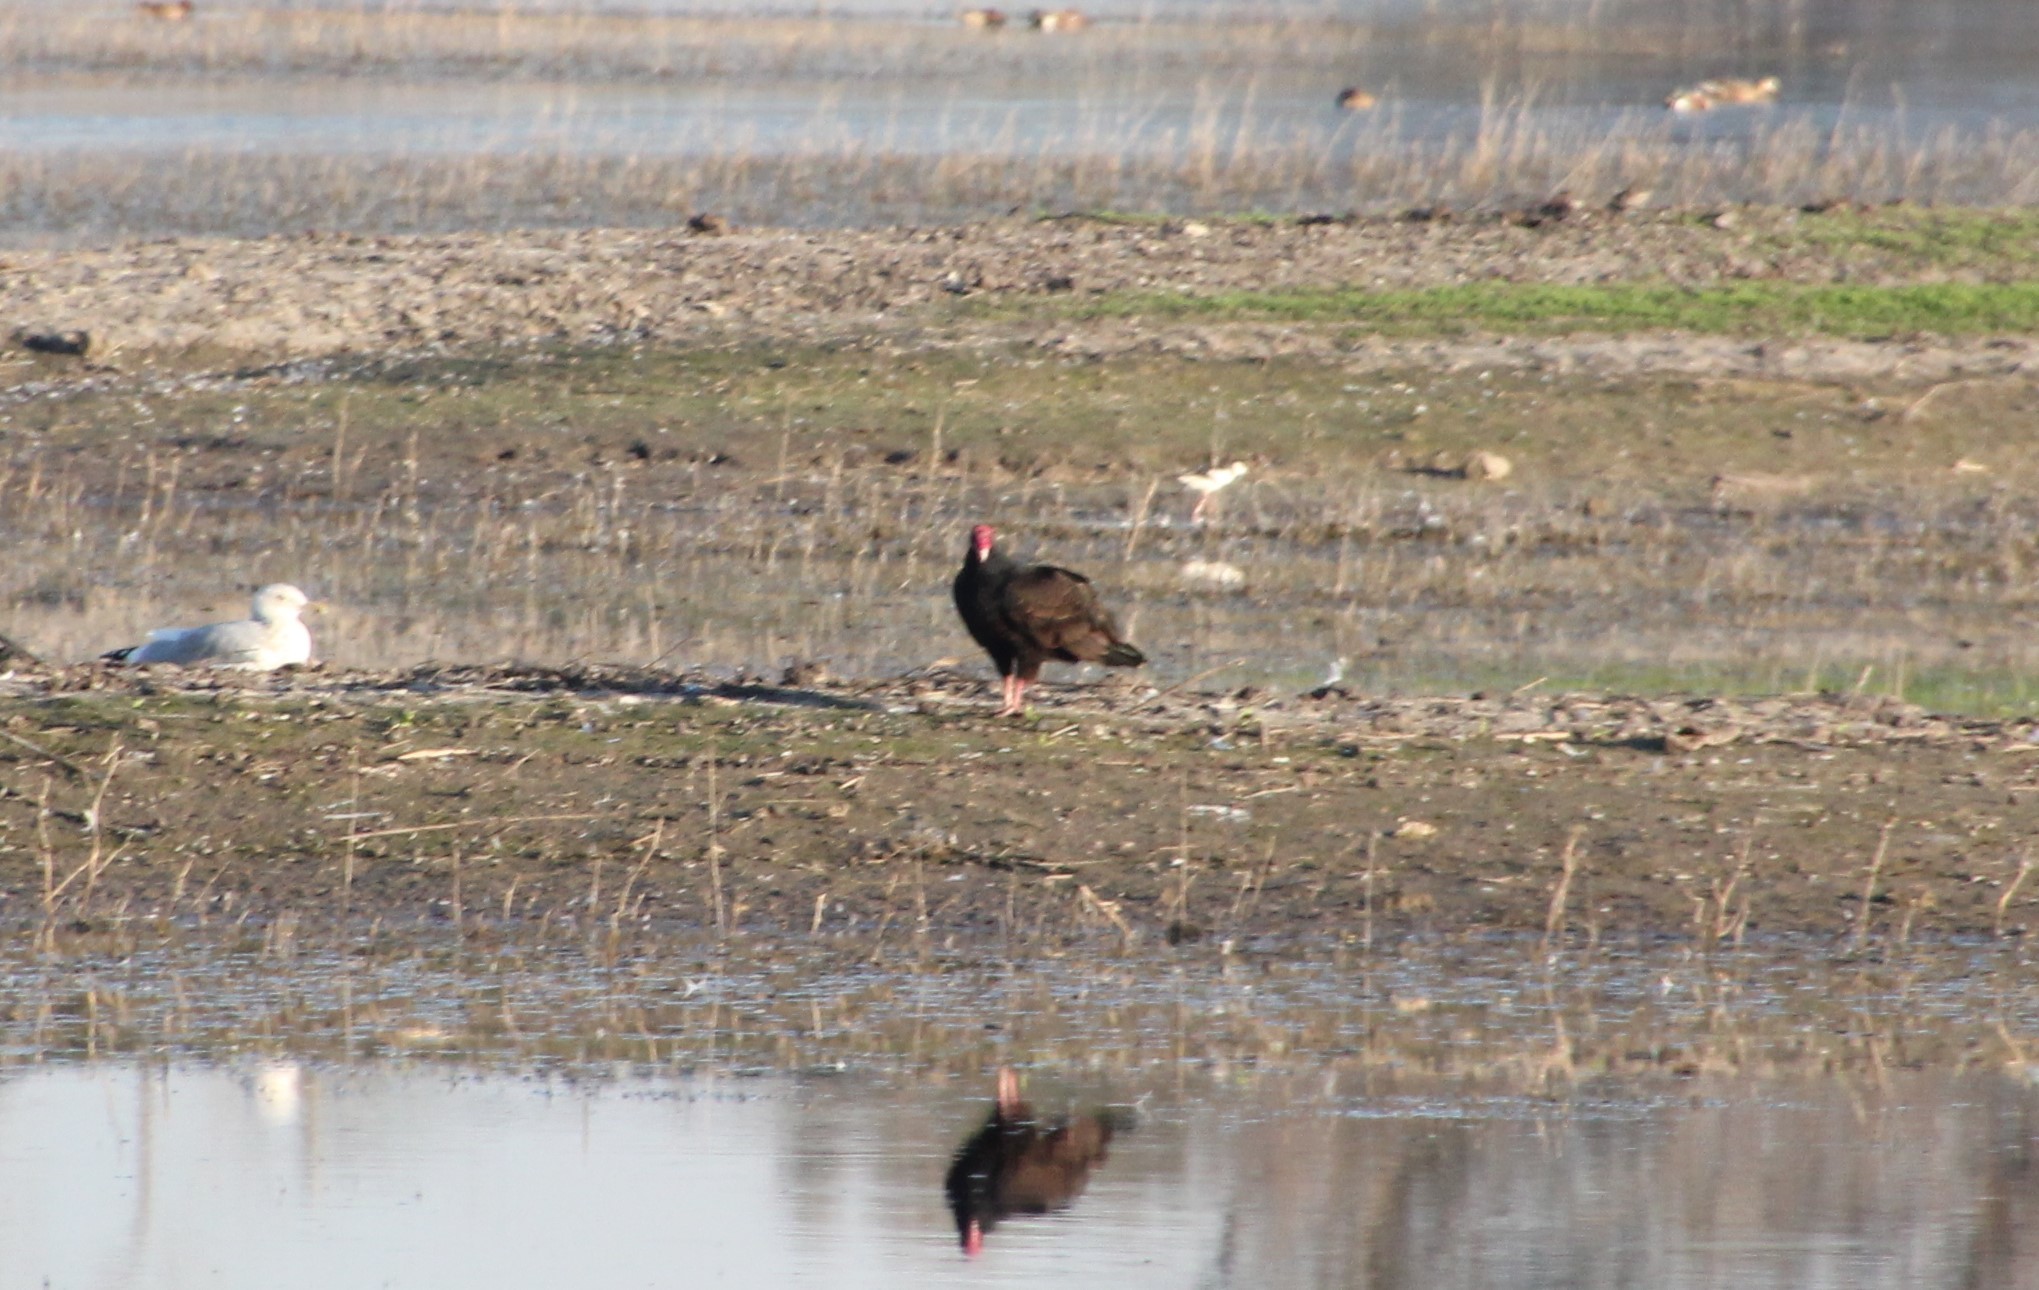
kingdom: Animalia
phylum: Chordata
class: Aves
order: Accipitriformes
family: Cathartidae
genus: Cathartes
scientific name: Cathartes aura
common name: Turkey vulture
